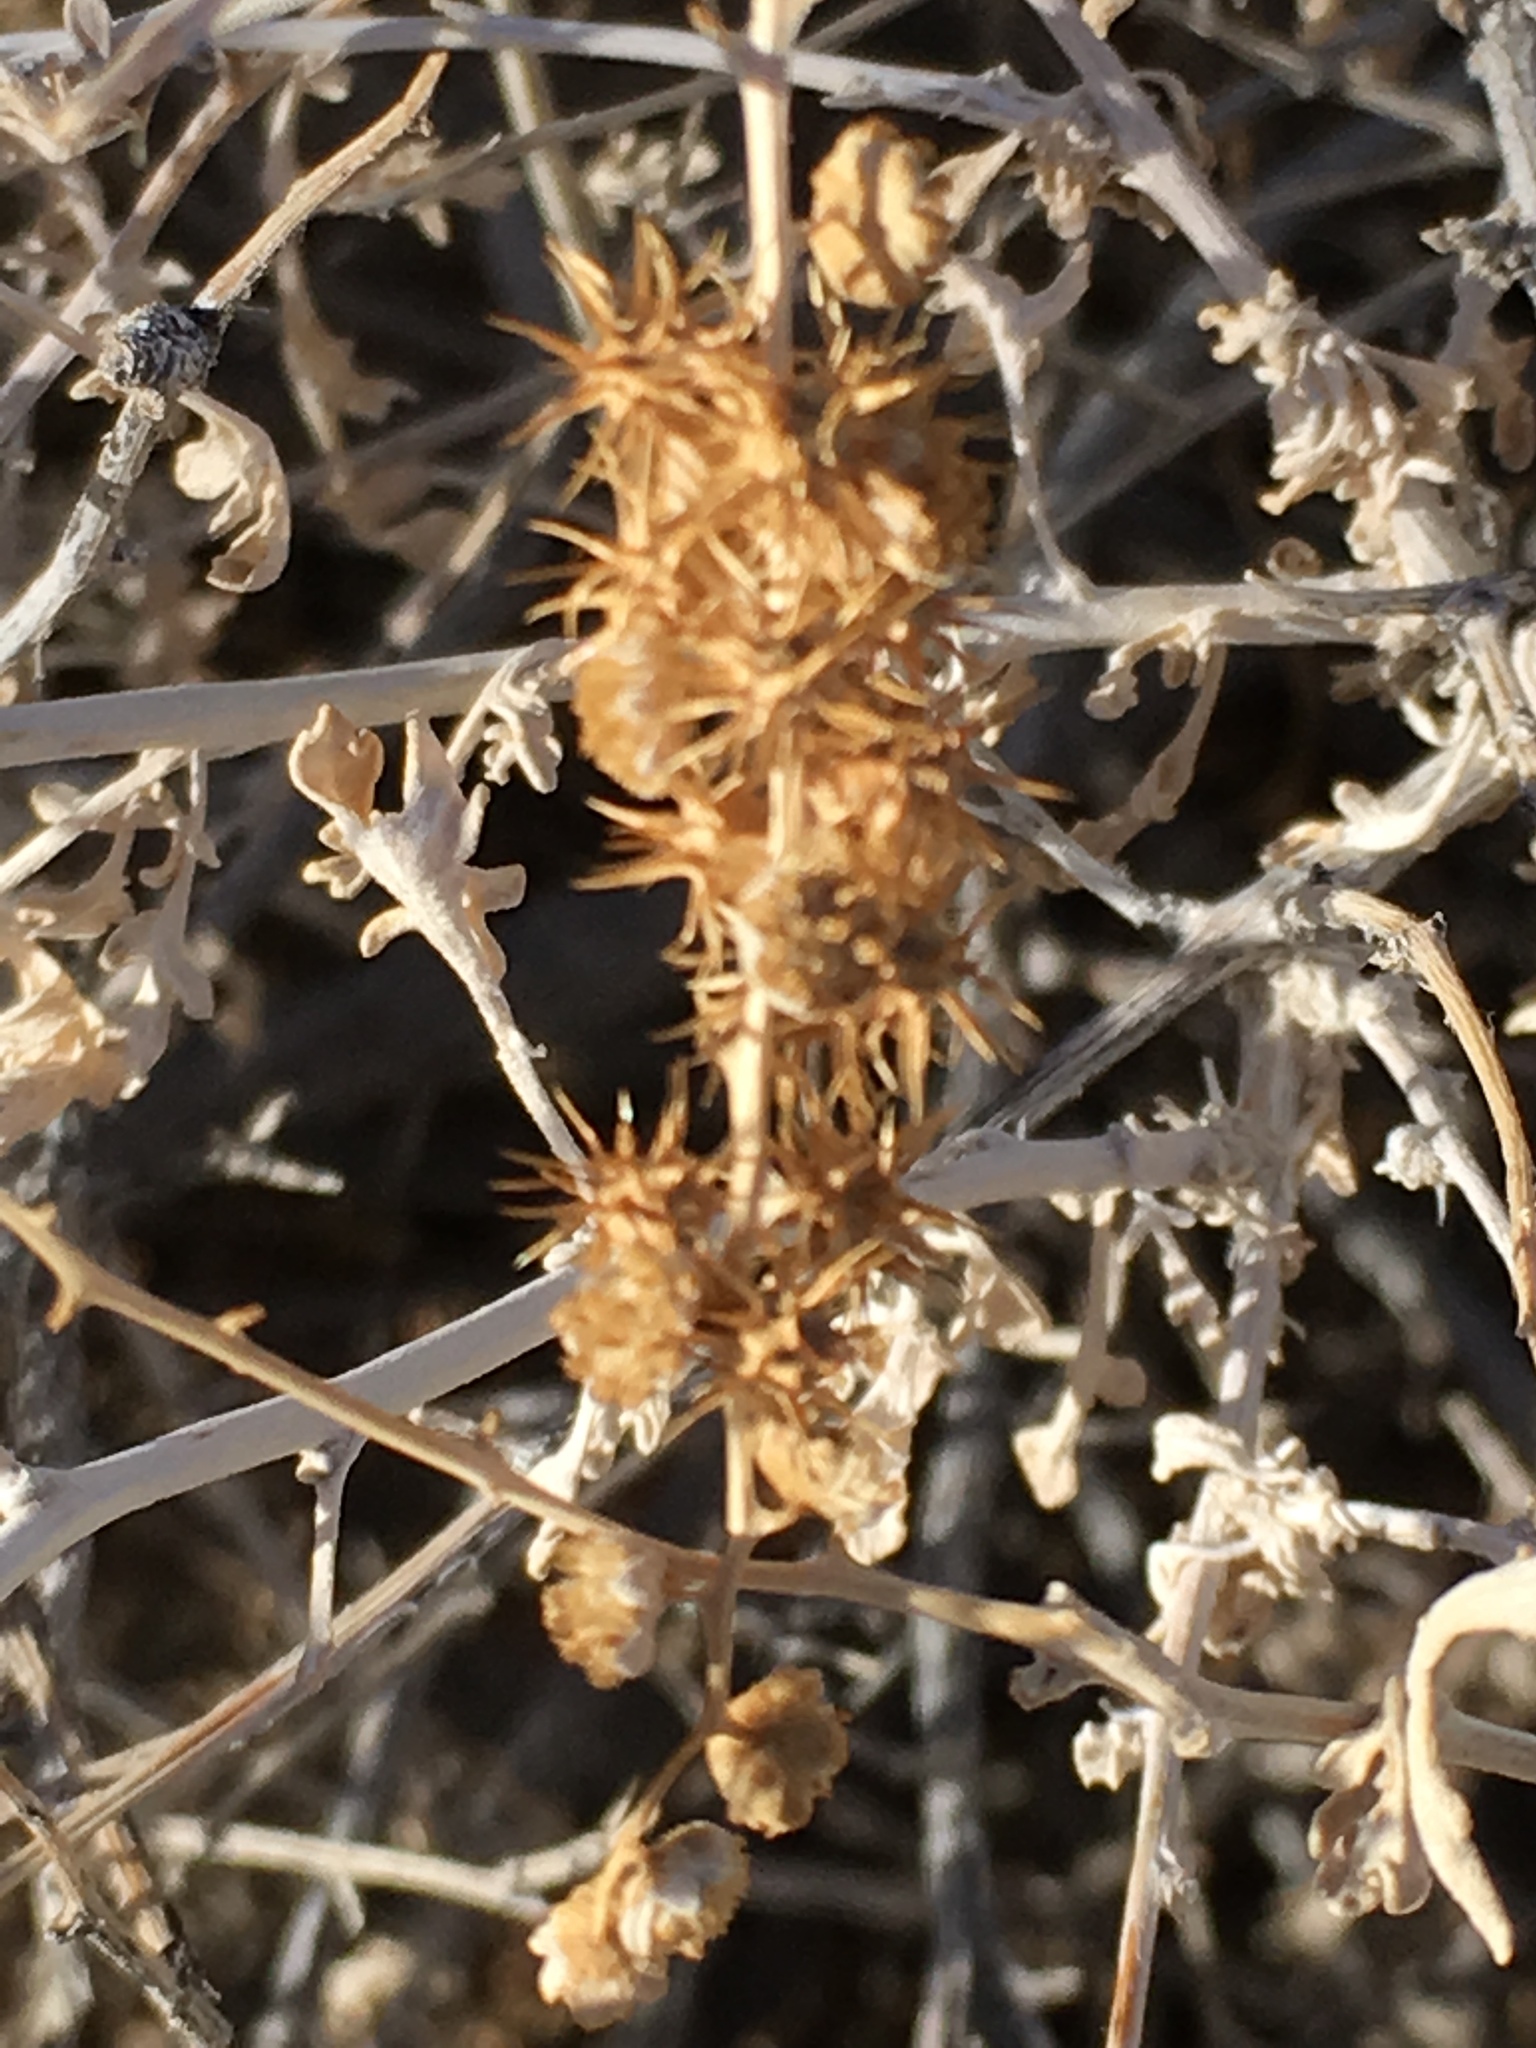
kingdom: Plantae
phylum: Tracheophyta
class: Magnoliopsida
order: Asterales
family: Asteraceae
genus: Ambrosia
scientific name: Ambrosia dumosa
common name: Bur-sage
